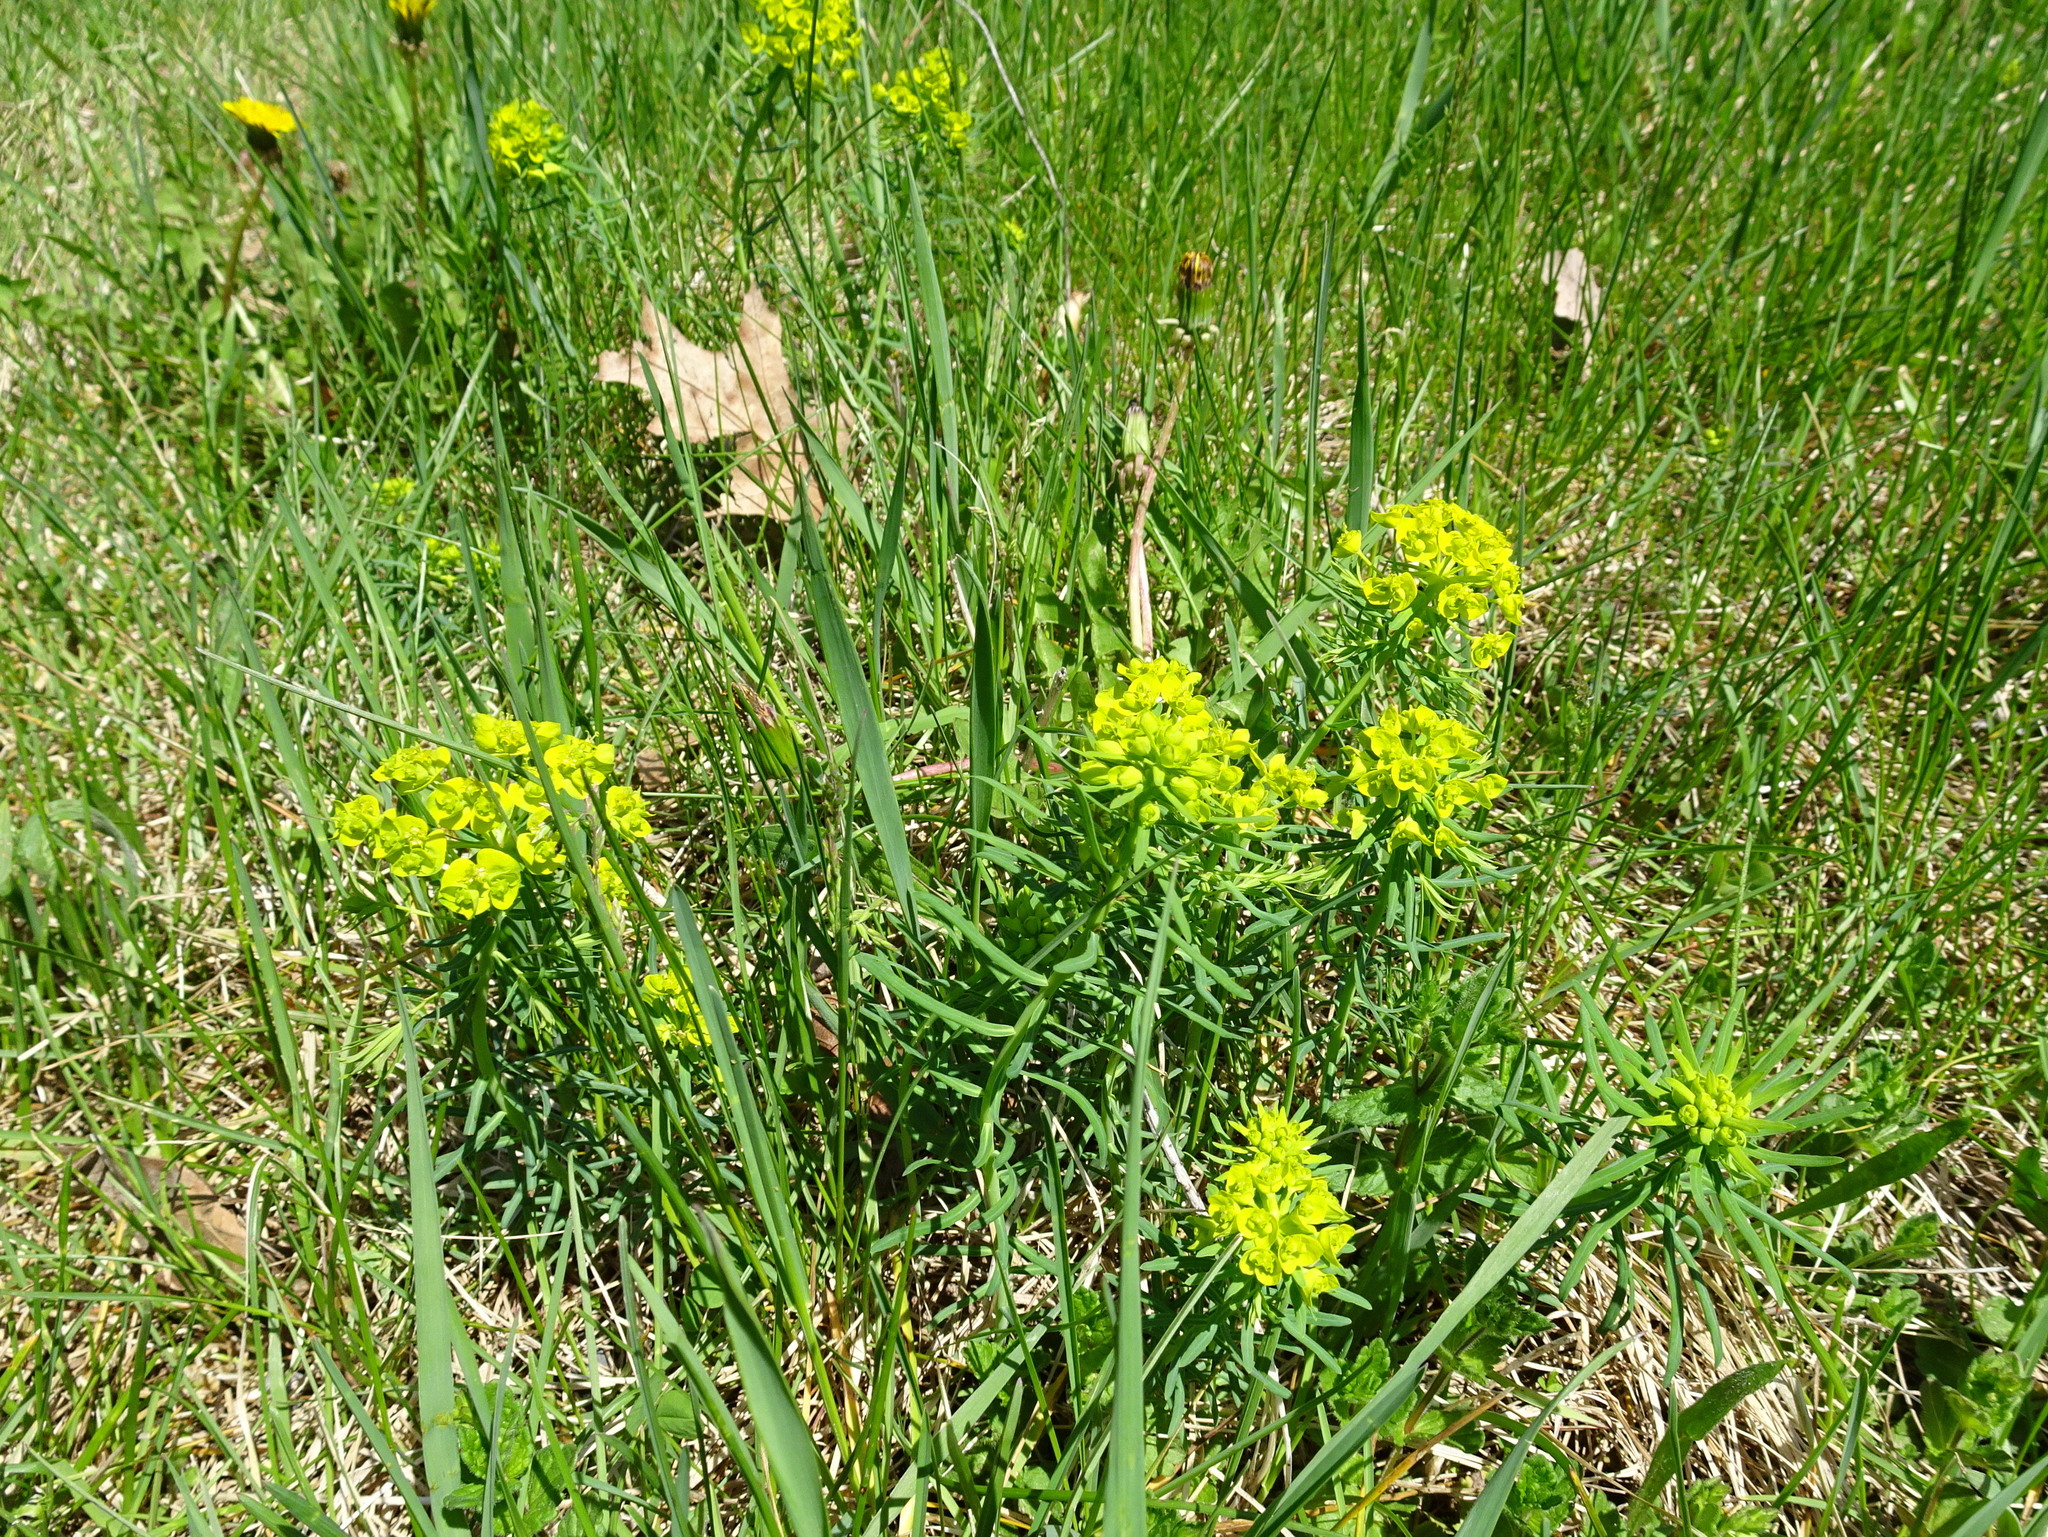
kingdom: Plantae
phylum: Tracheophyta
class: Magnoliopsida
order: Malpighiales
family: Euphorbiaceae
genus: Euphorbia
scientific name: Euphorbia cyparissias
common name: Cypress spurge
